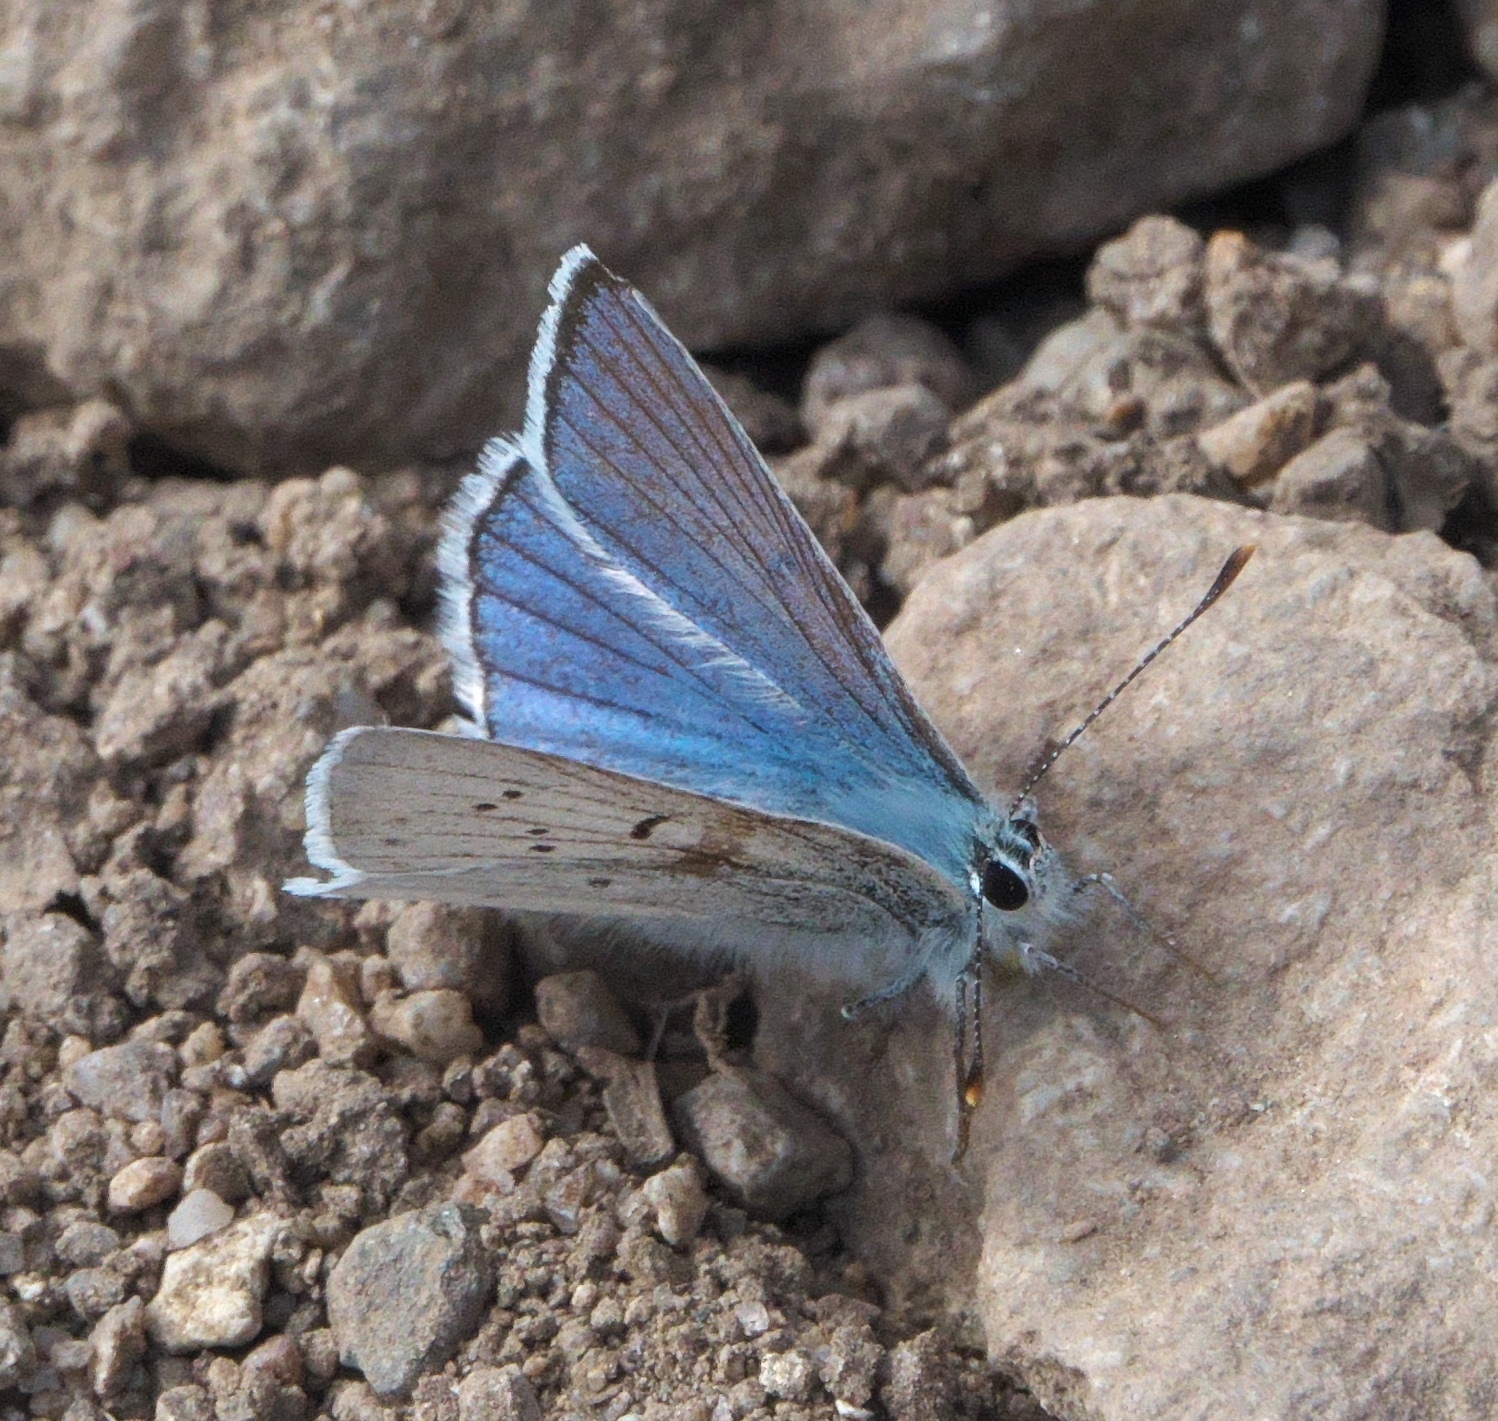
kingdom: Animalia
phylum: Arthropoda
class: Insecta
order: Lepidoptera
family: Lycaenidae
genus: Tharsalea
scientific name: Tharsalea heteronea
